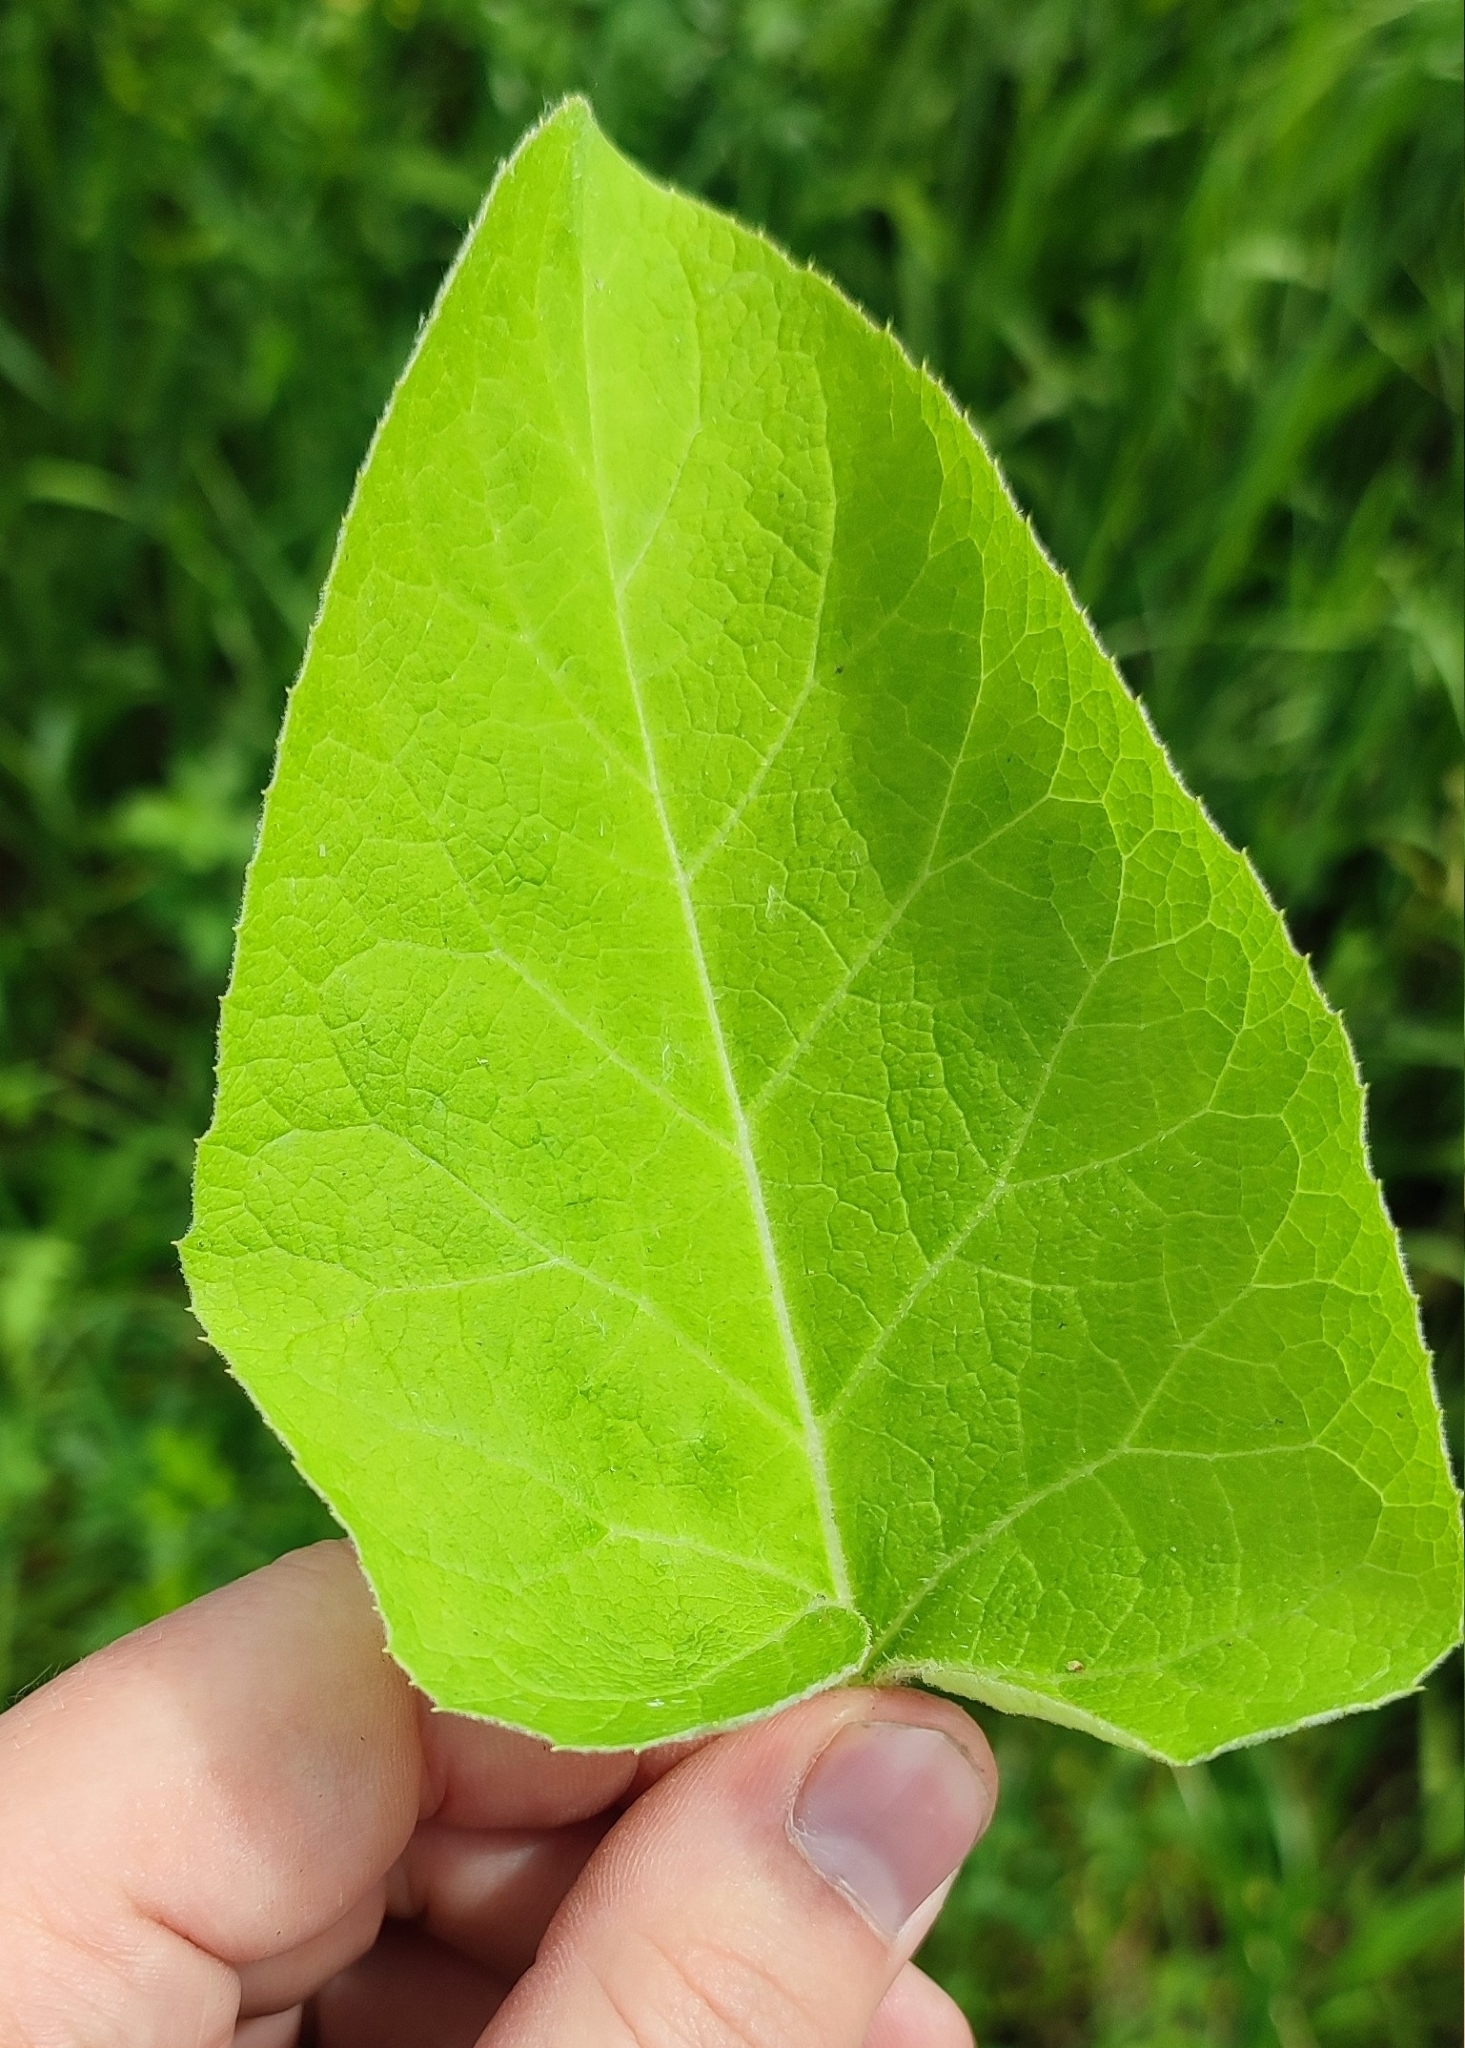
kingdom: Plantae
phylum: Tracheophyta
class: Magnoliopsida
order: Asterales
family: Asteraceae
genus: Arctium
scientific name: Arctium tomentosum
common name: Woolly burdock
